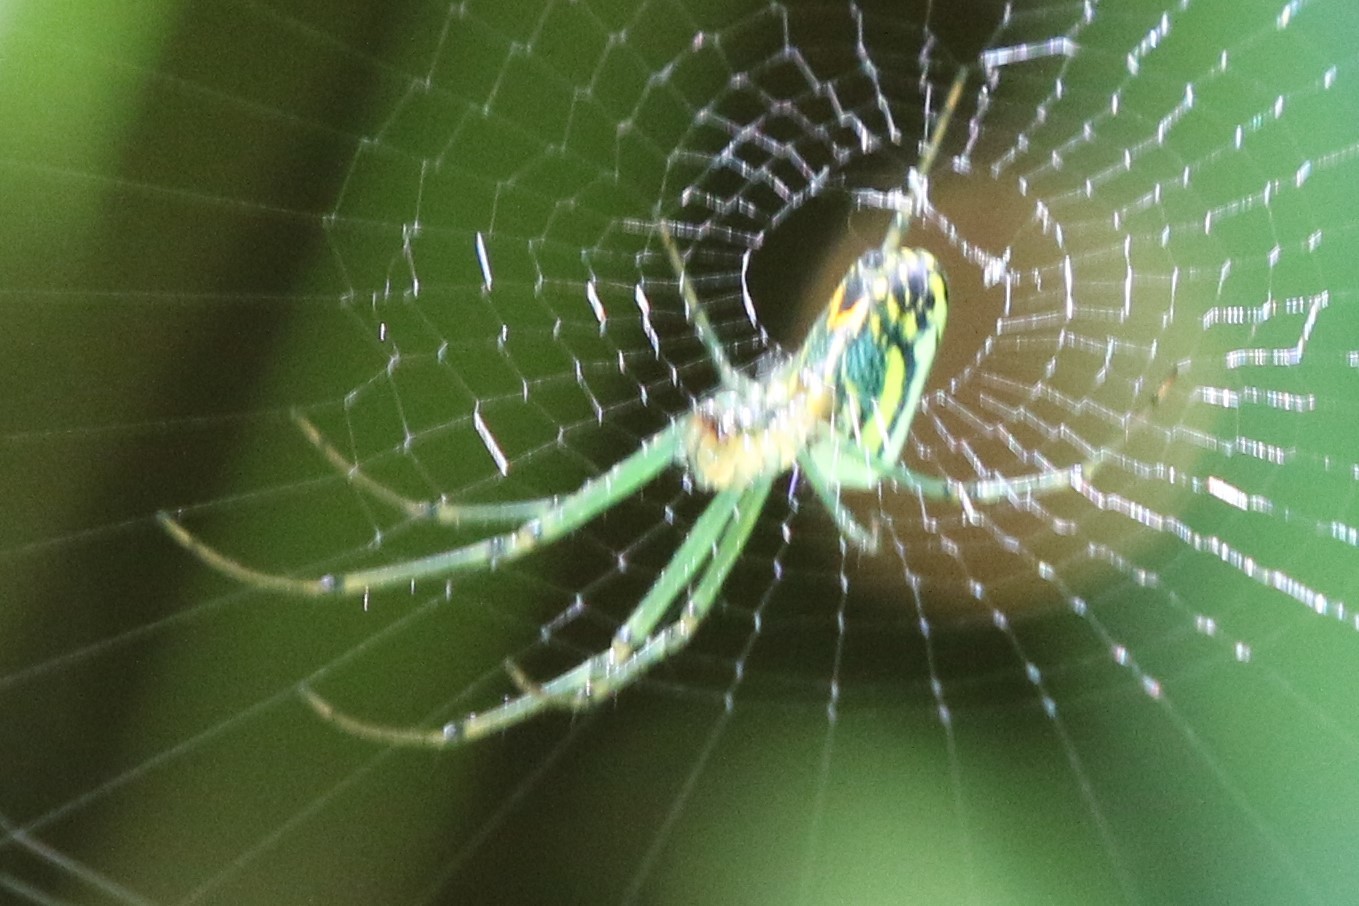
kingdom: Animalia
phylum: Arthropoda
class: Arachnida
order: Araneae
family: Tetragnathidae
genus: Leucauge
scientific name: Leucauge venusta
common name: Longjawed orb weavers
